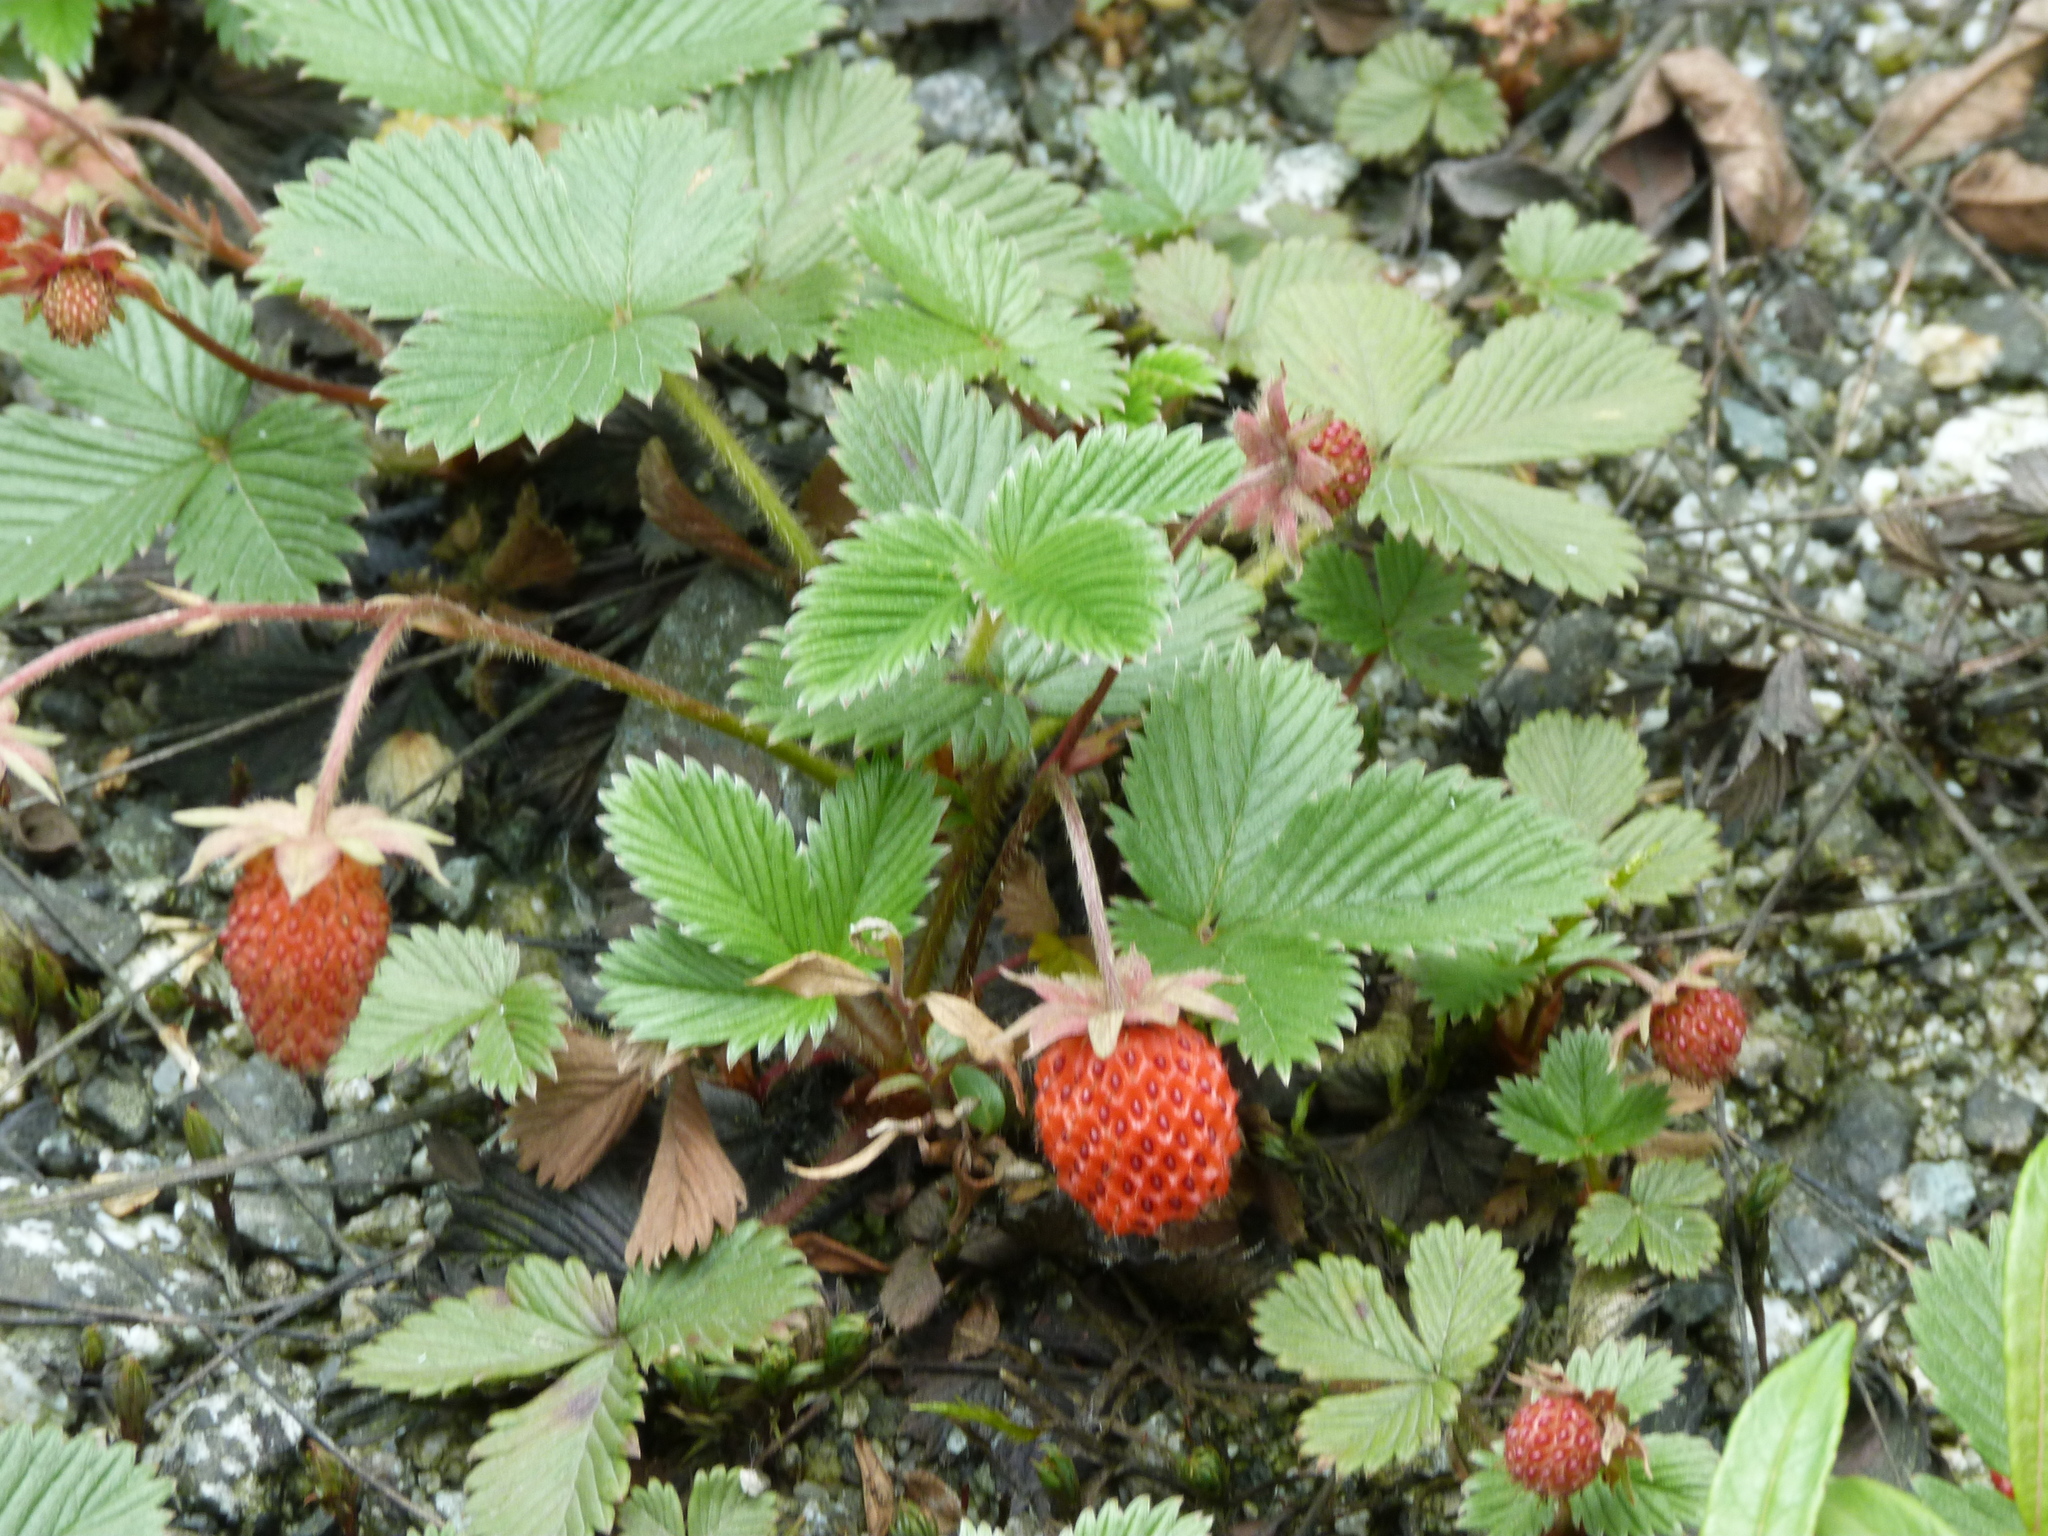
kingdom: Plantae
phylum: Tracheophyta
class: Magnoliopsida
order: Rosales
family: Rosaceae
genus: Fragaria
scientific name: Fragaria moupinensis
